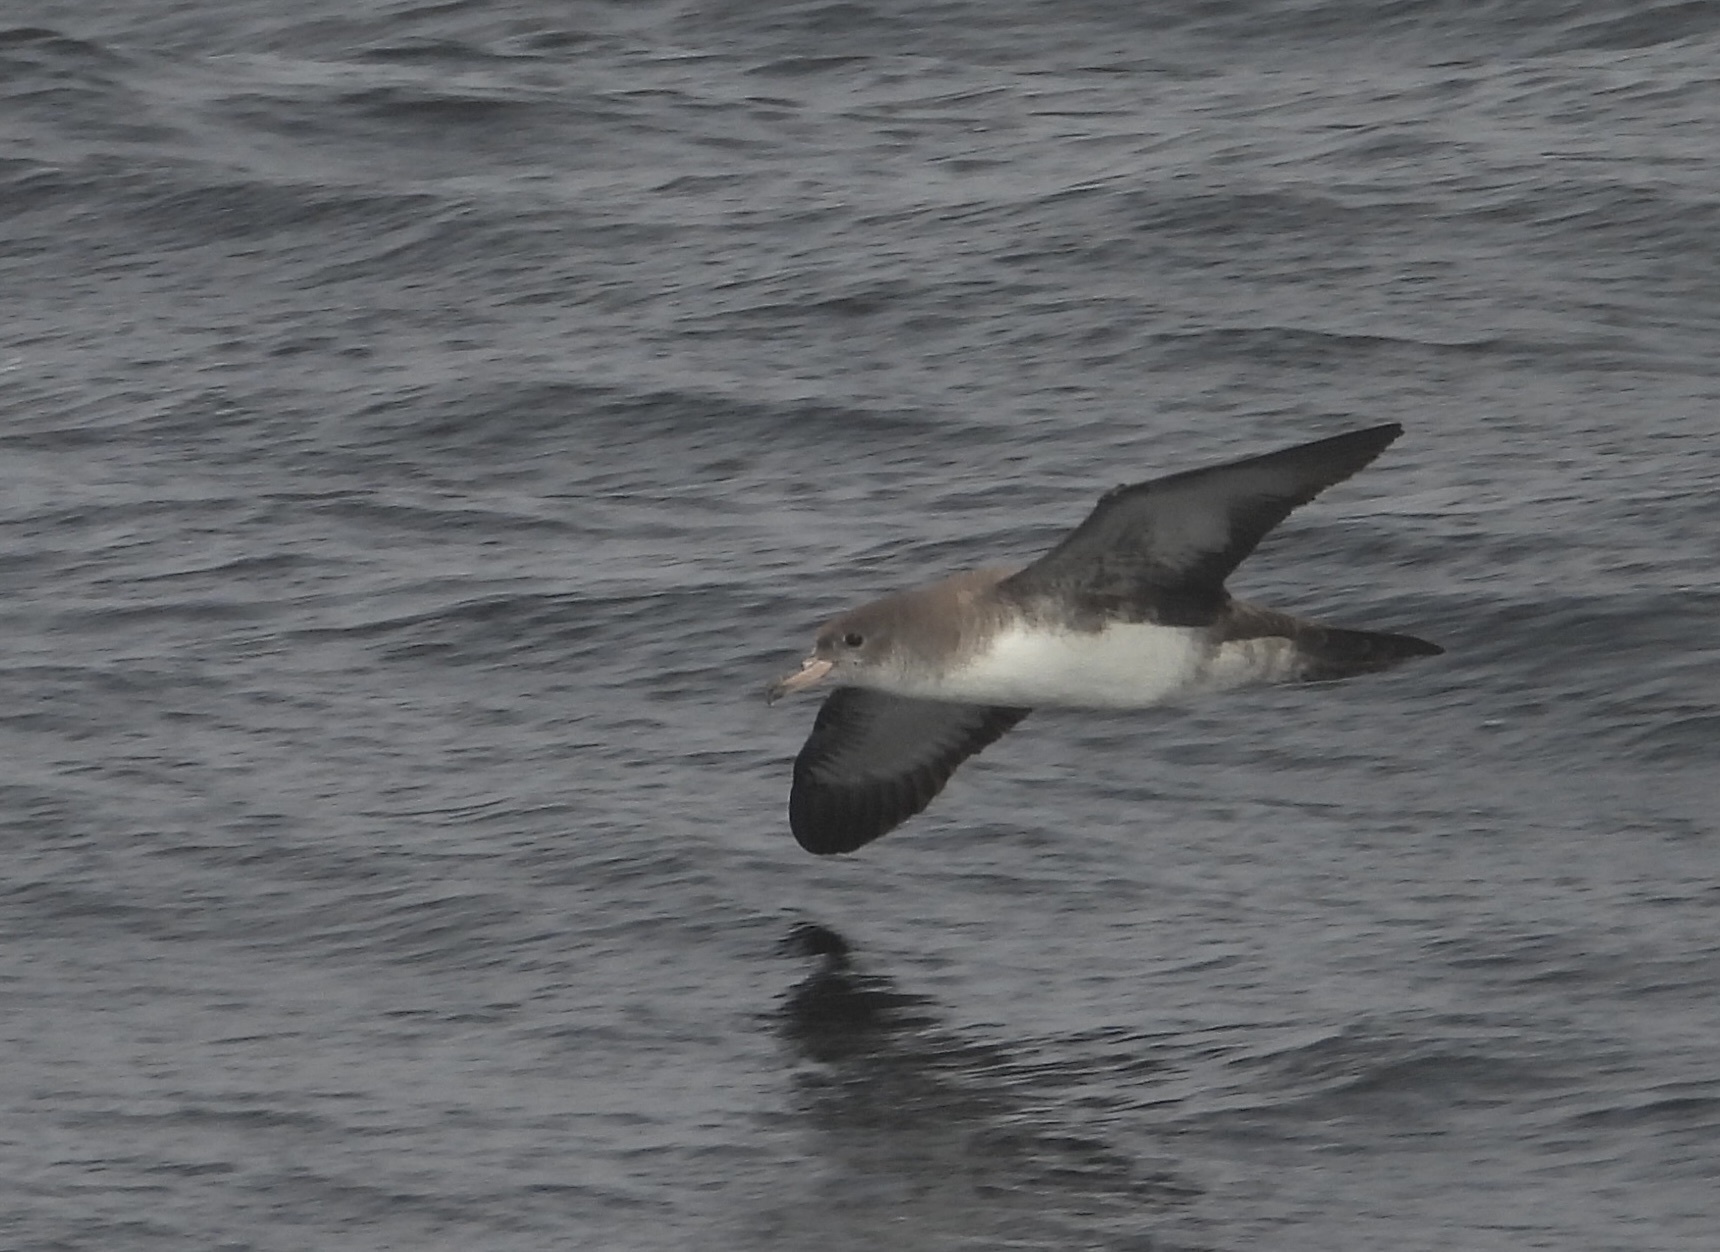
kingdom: Animalia
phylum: Chordata
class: Aves
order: Procellariiformes
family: Procellariidae
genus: Puffinus
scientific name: Puffinus creatopus
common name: Pink-footed shearwater
